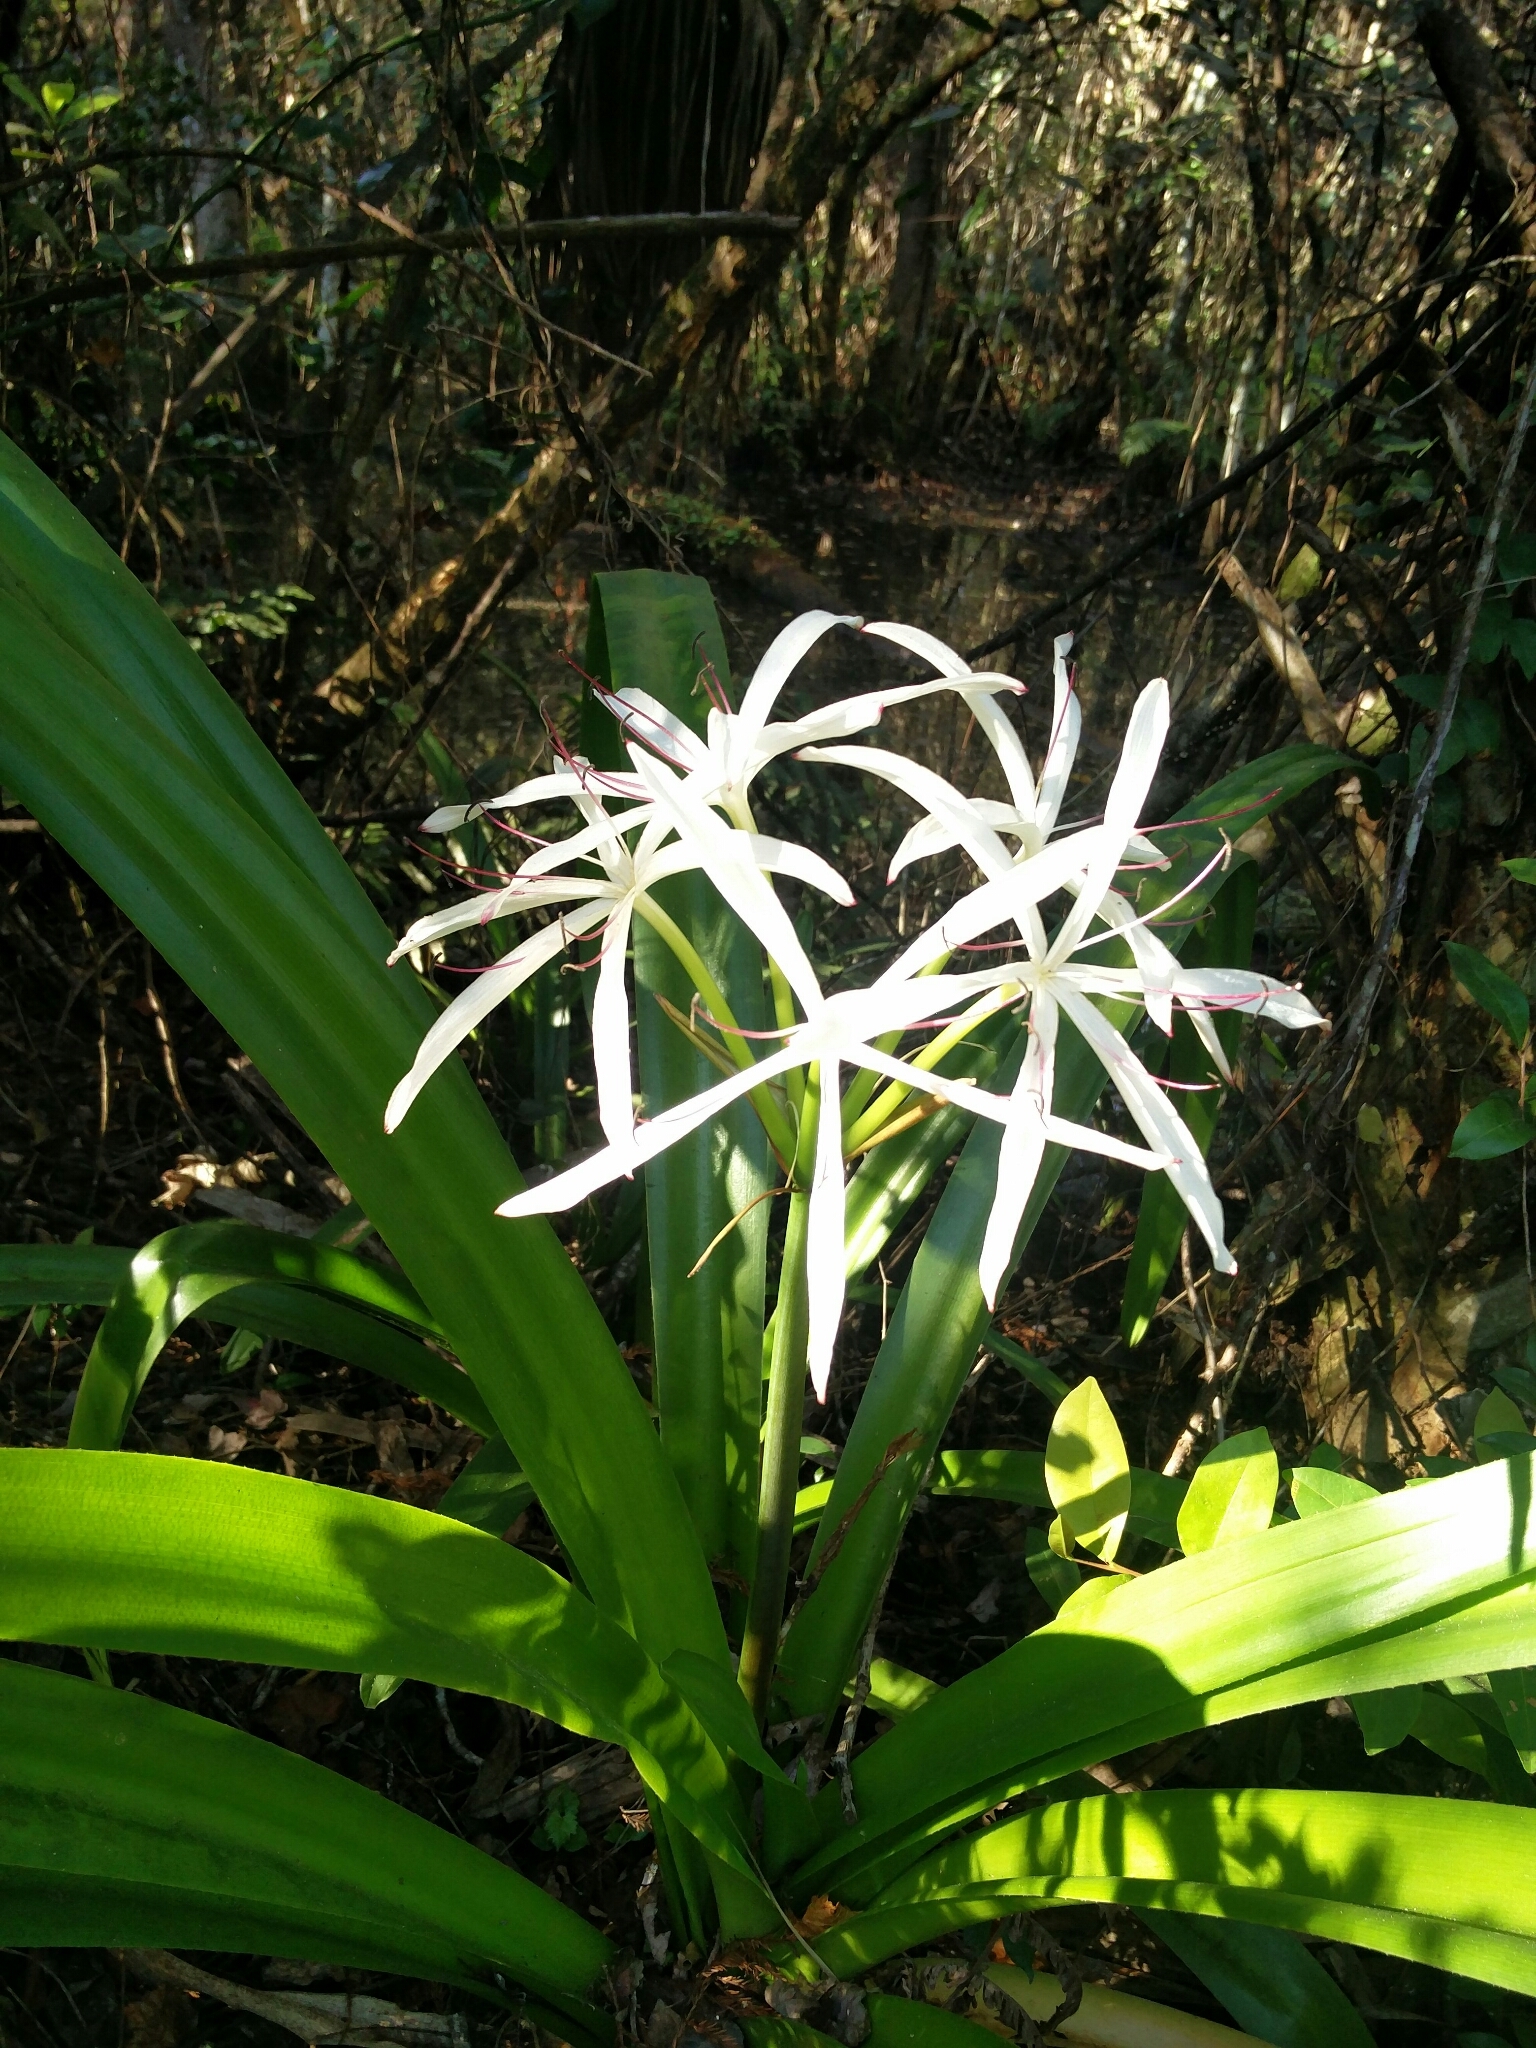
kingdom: Plantae
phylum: Tracheophyta
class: Liliopsida
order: Asparagales
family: Amaryllidaceae
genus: Crinum
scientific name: Crinum americanum
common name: Florida swamp-lily
